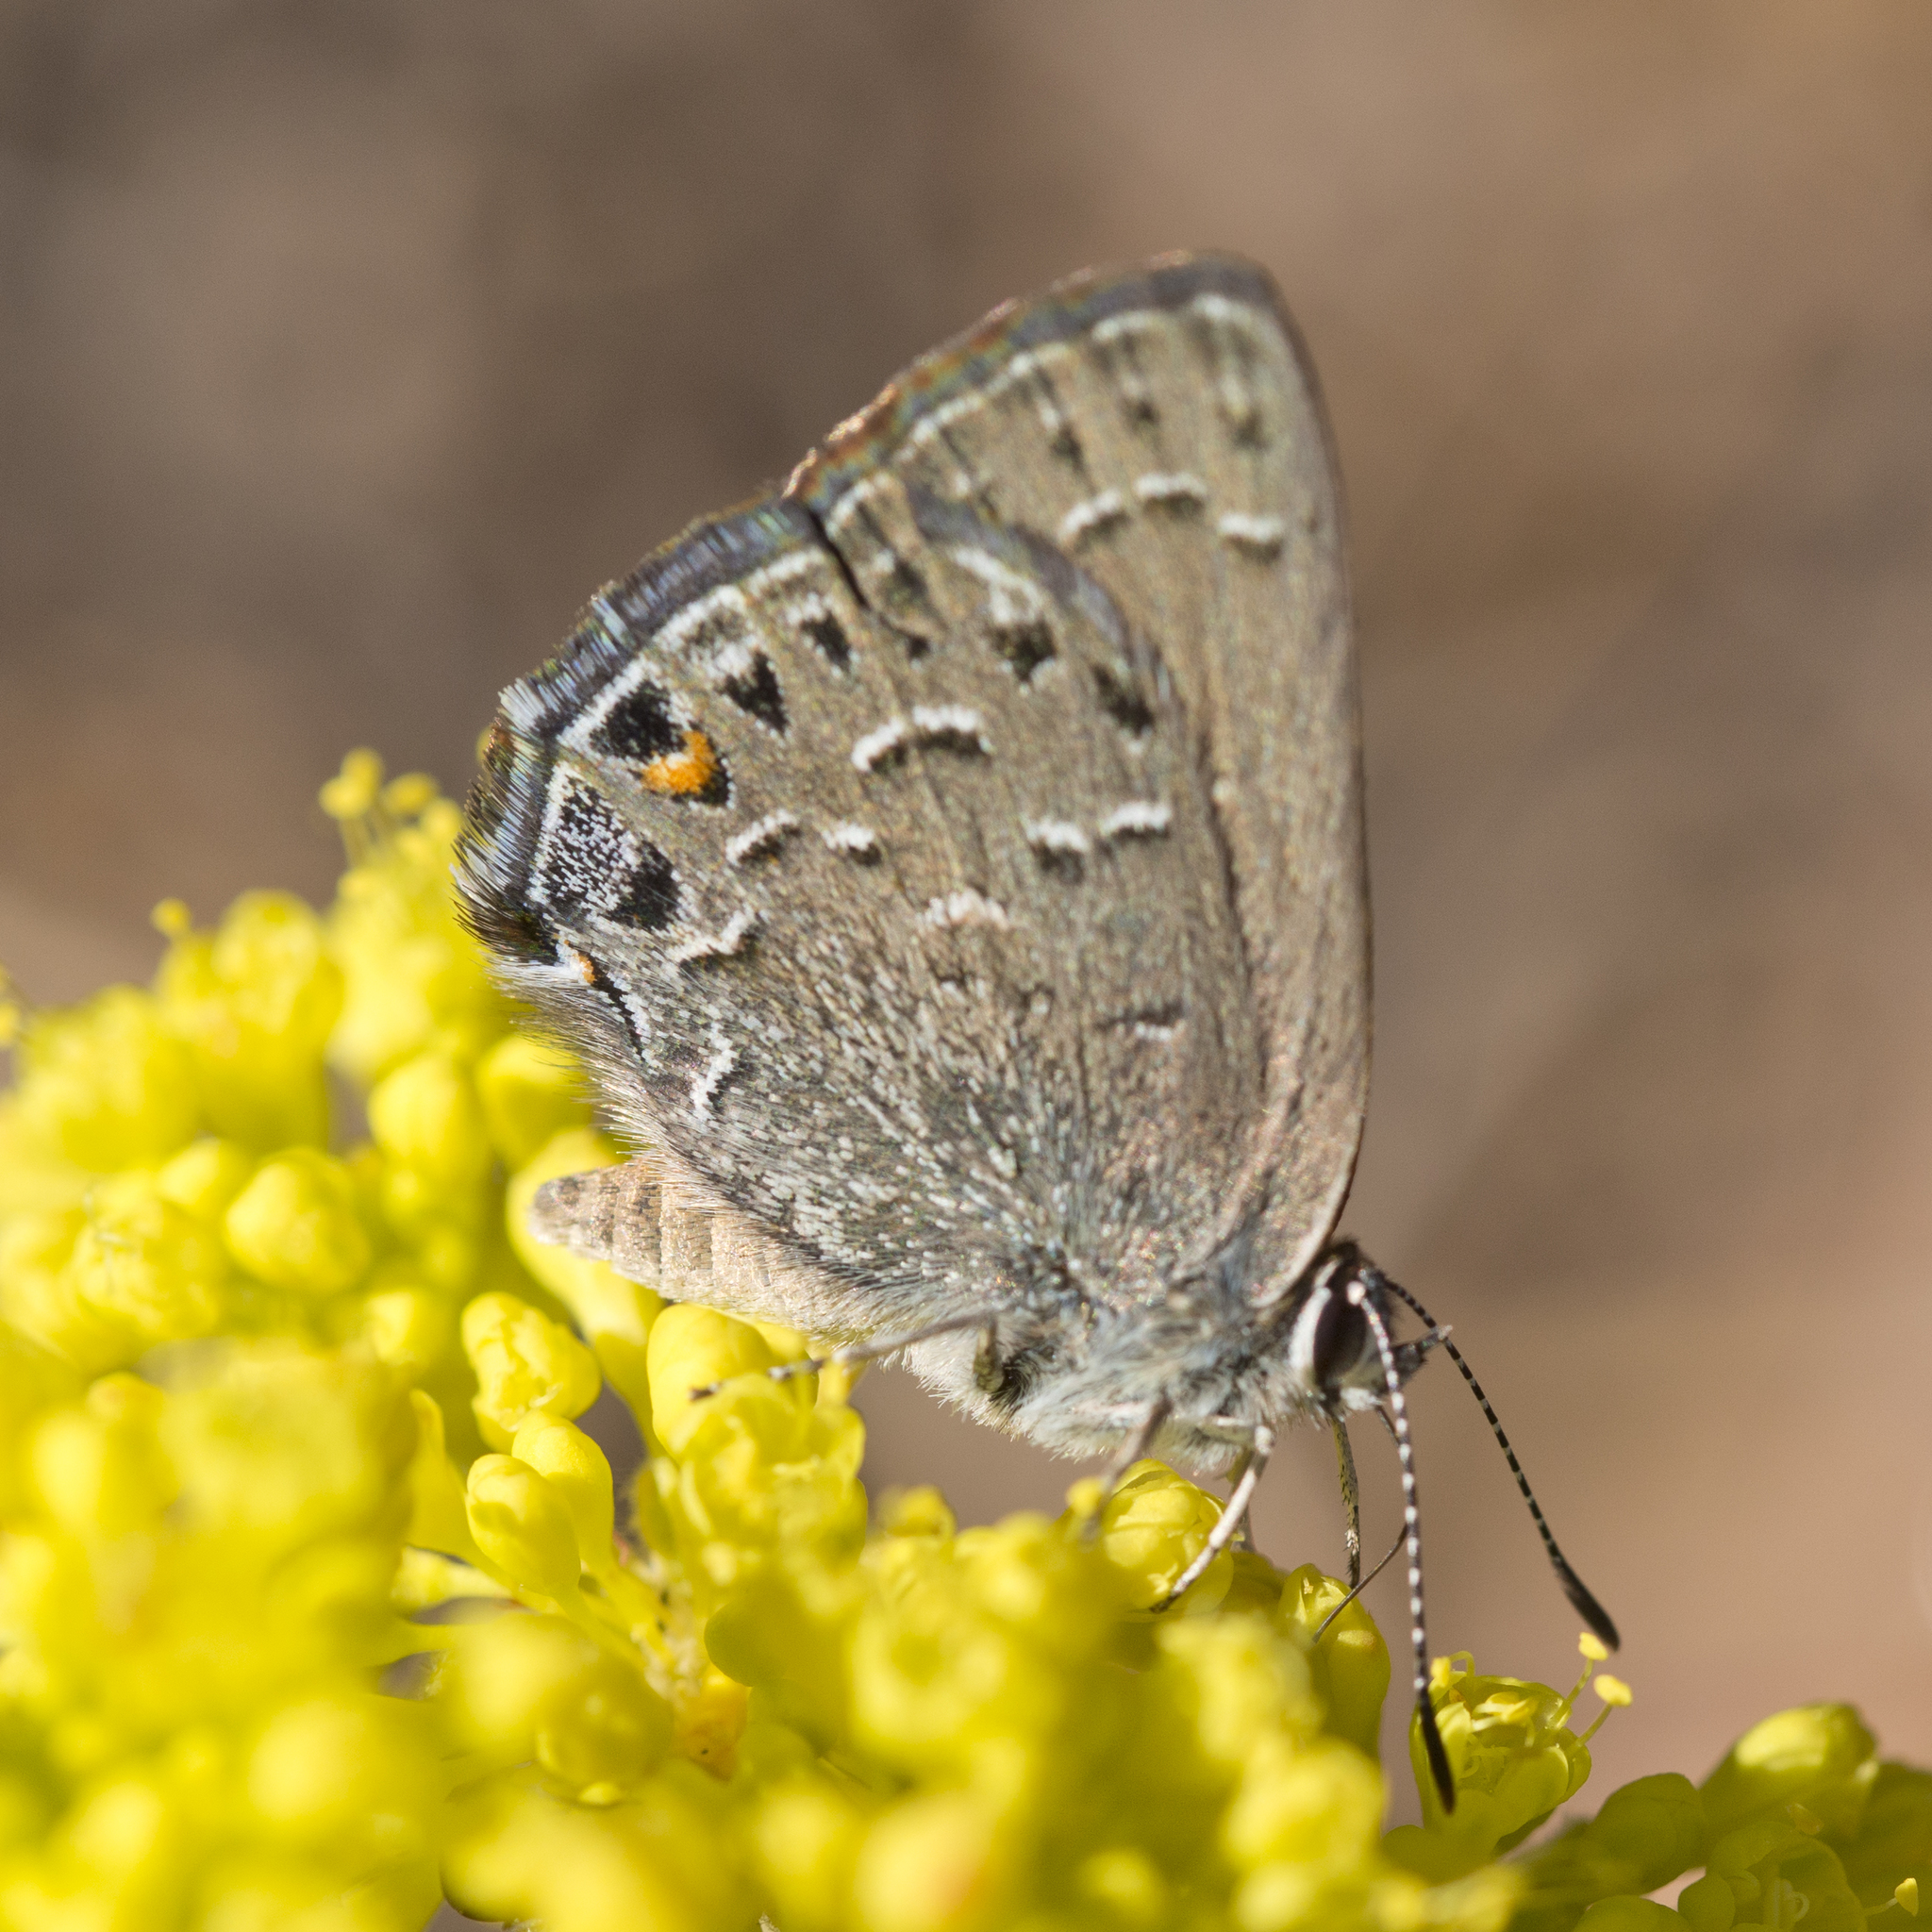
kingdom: Animalia
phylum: Arthropoda
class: Insecta
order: Lepidoptera
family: Lycaenidae
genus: Satyrium
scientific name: Satyrium behrii
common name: Behr's hairstreak
